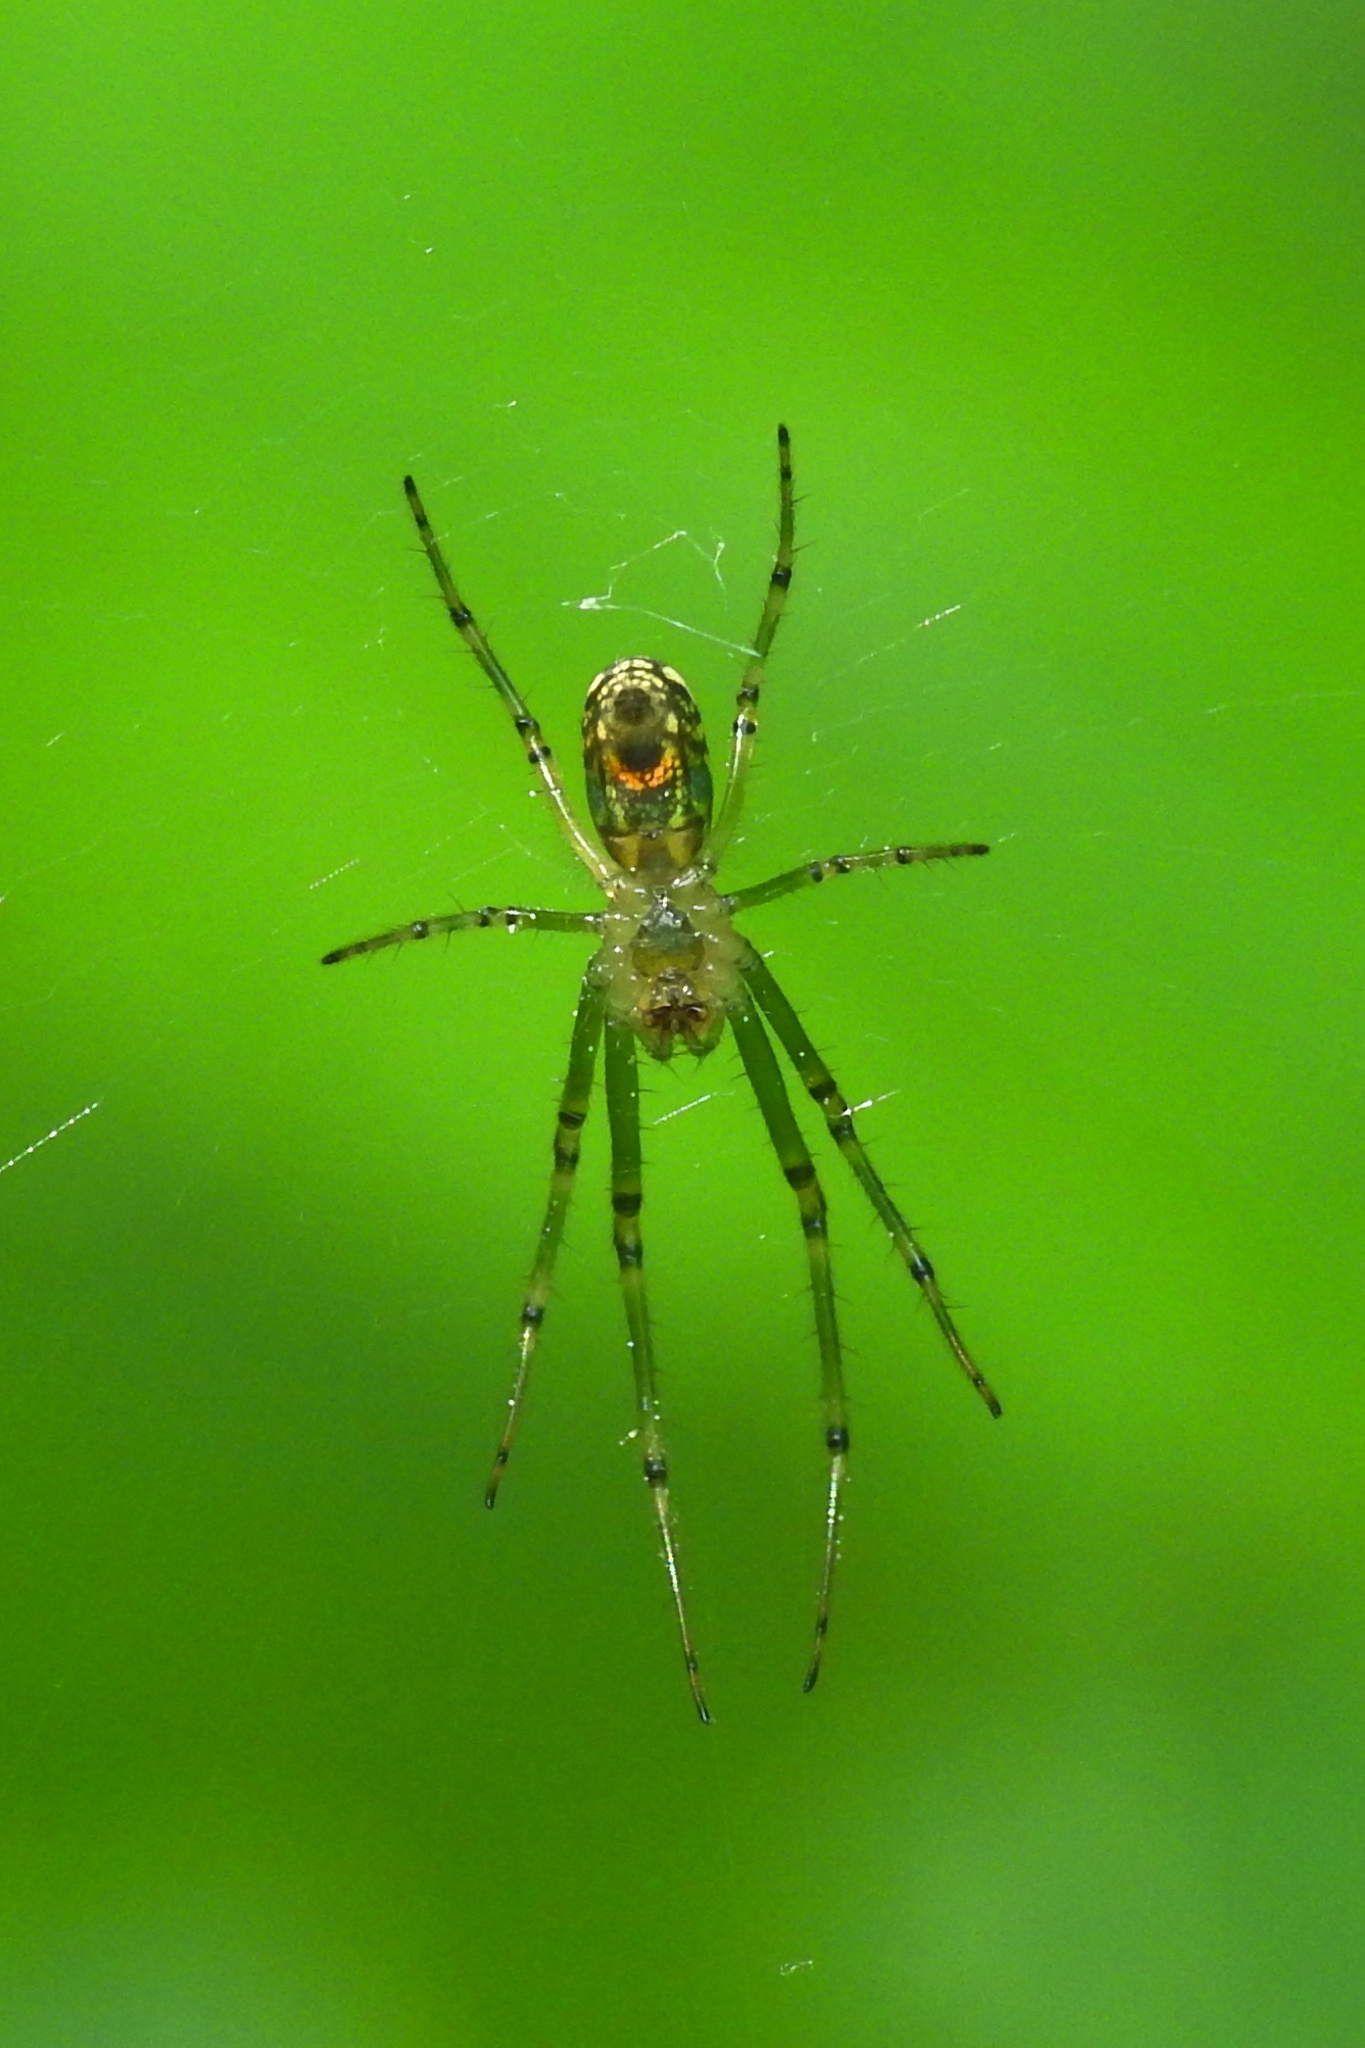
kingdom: Animalia
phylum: Arthropoda
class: Arachnida
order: Araneae
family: Tetragnathidae
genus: Leucauge
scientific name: Leucauge venusta
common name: Longjawed orb weavers
